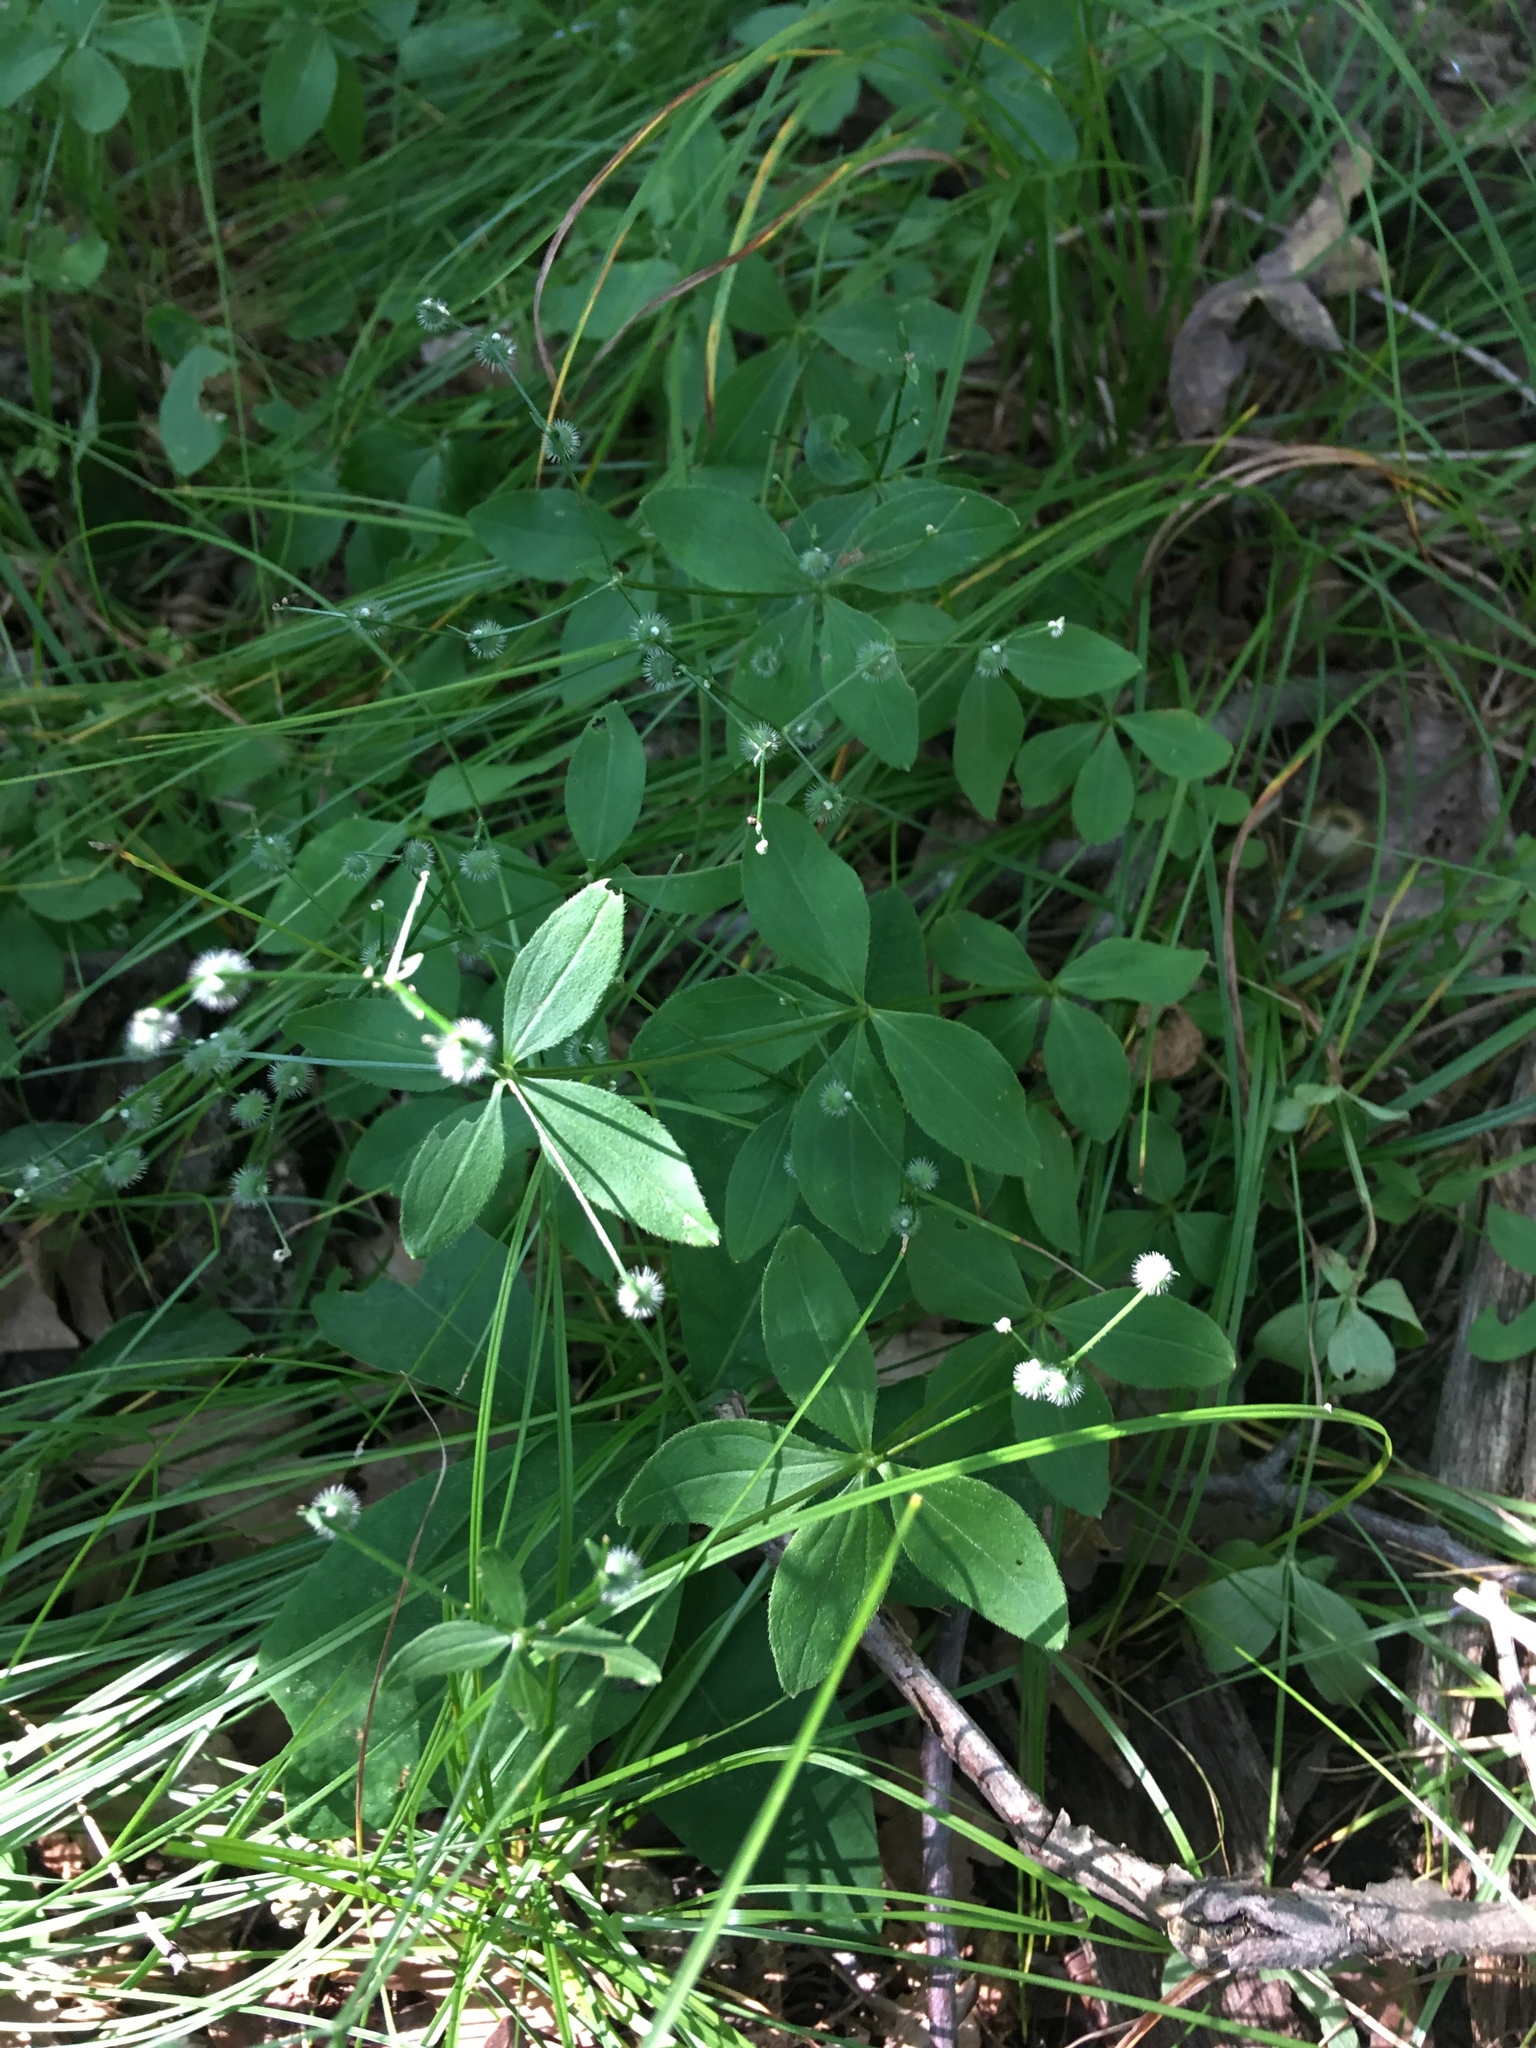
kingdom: Plantae
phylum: Tracheophyta
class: Magnoliopsida
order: Gentianales
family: Rubiaceae
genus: Galium
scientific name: Galium circaezans
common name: Forest bedstraw
